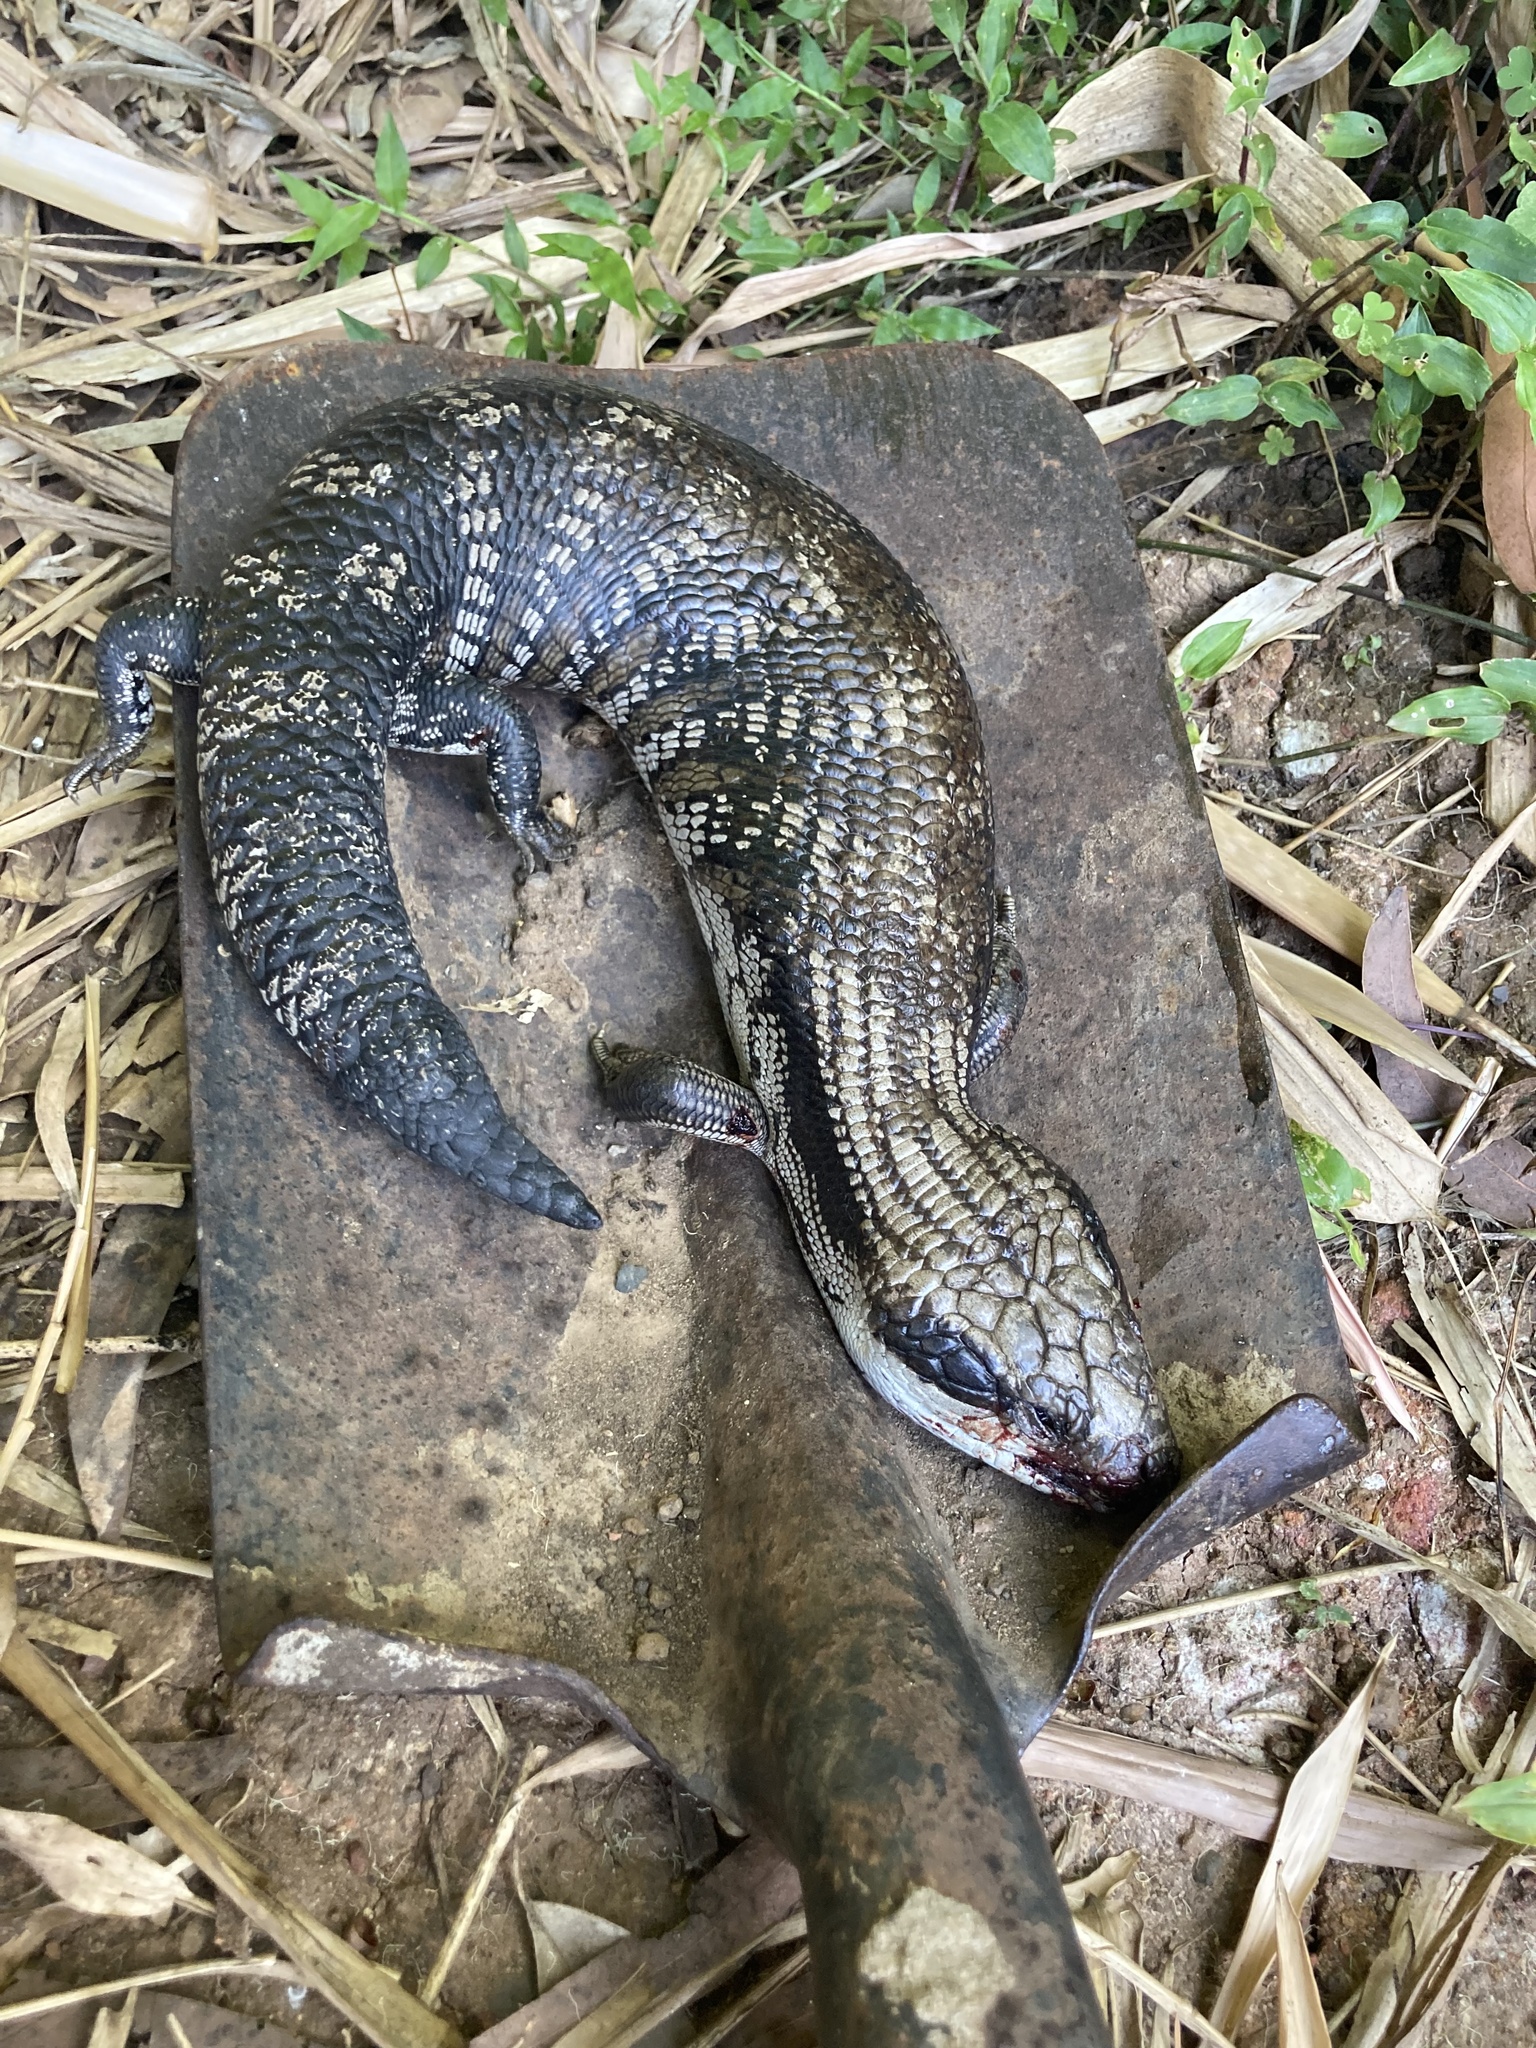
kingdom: Animalia
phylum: Chordata
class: Squamata
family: Scincidae
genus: Tiliqua
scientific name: Tiliqua scincoides
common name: Common bluetongue
